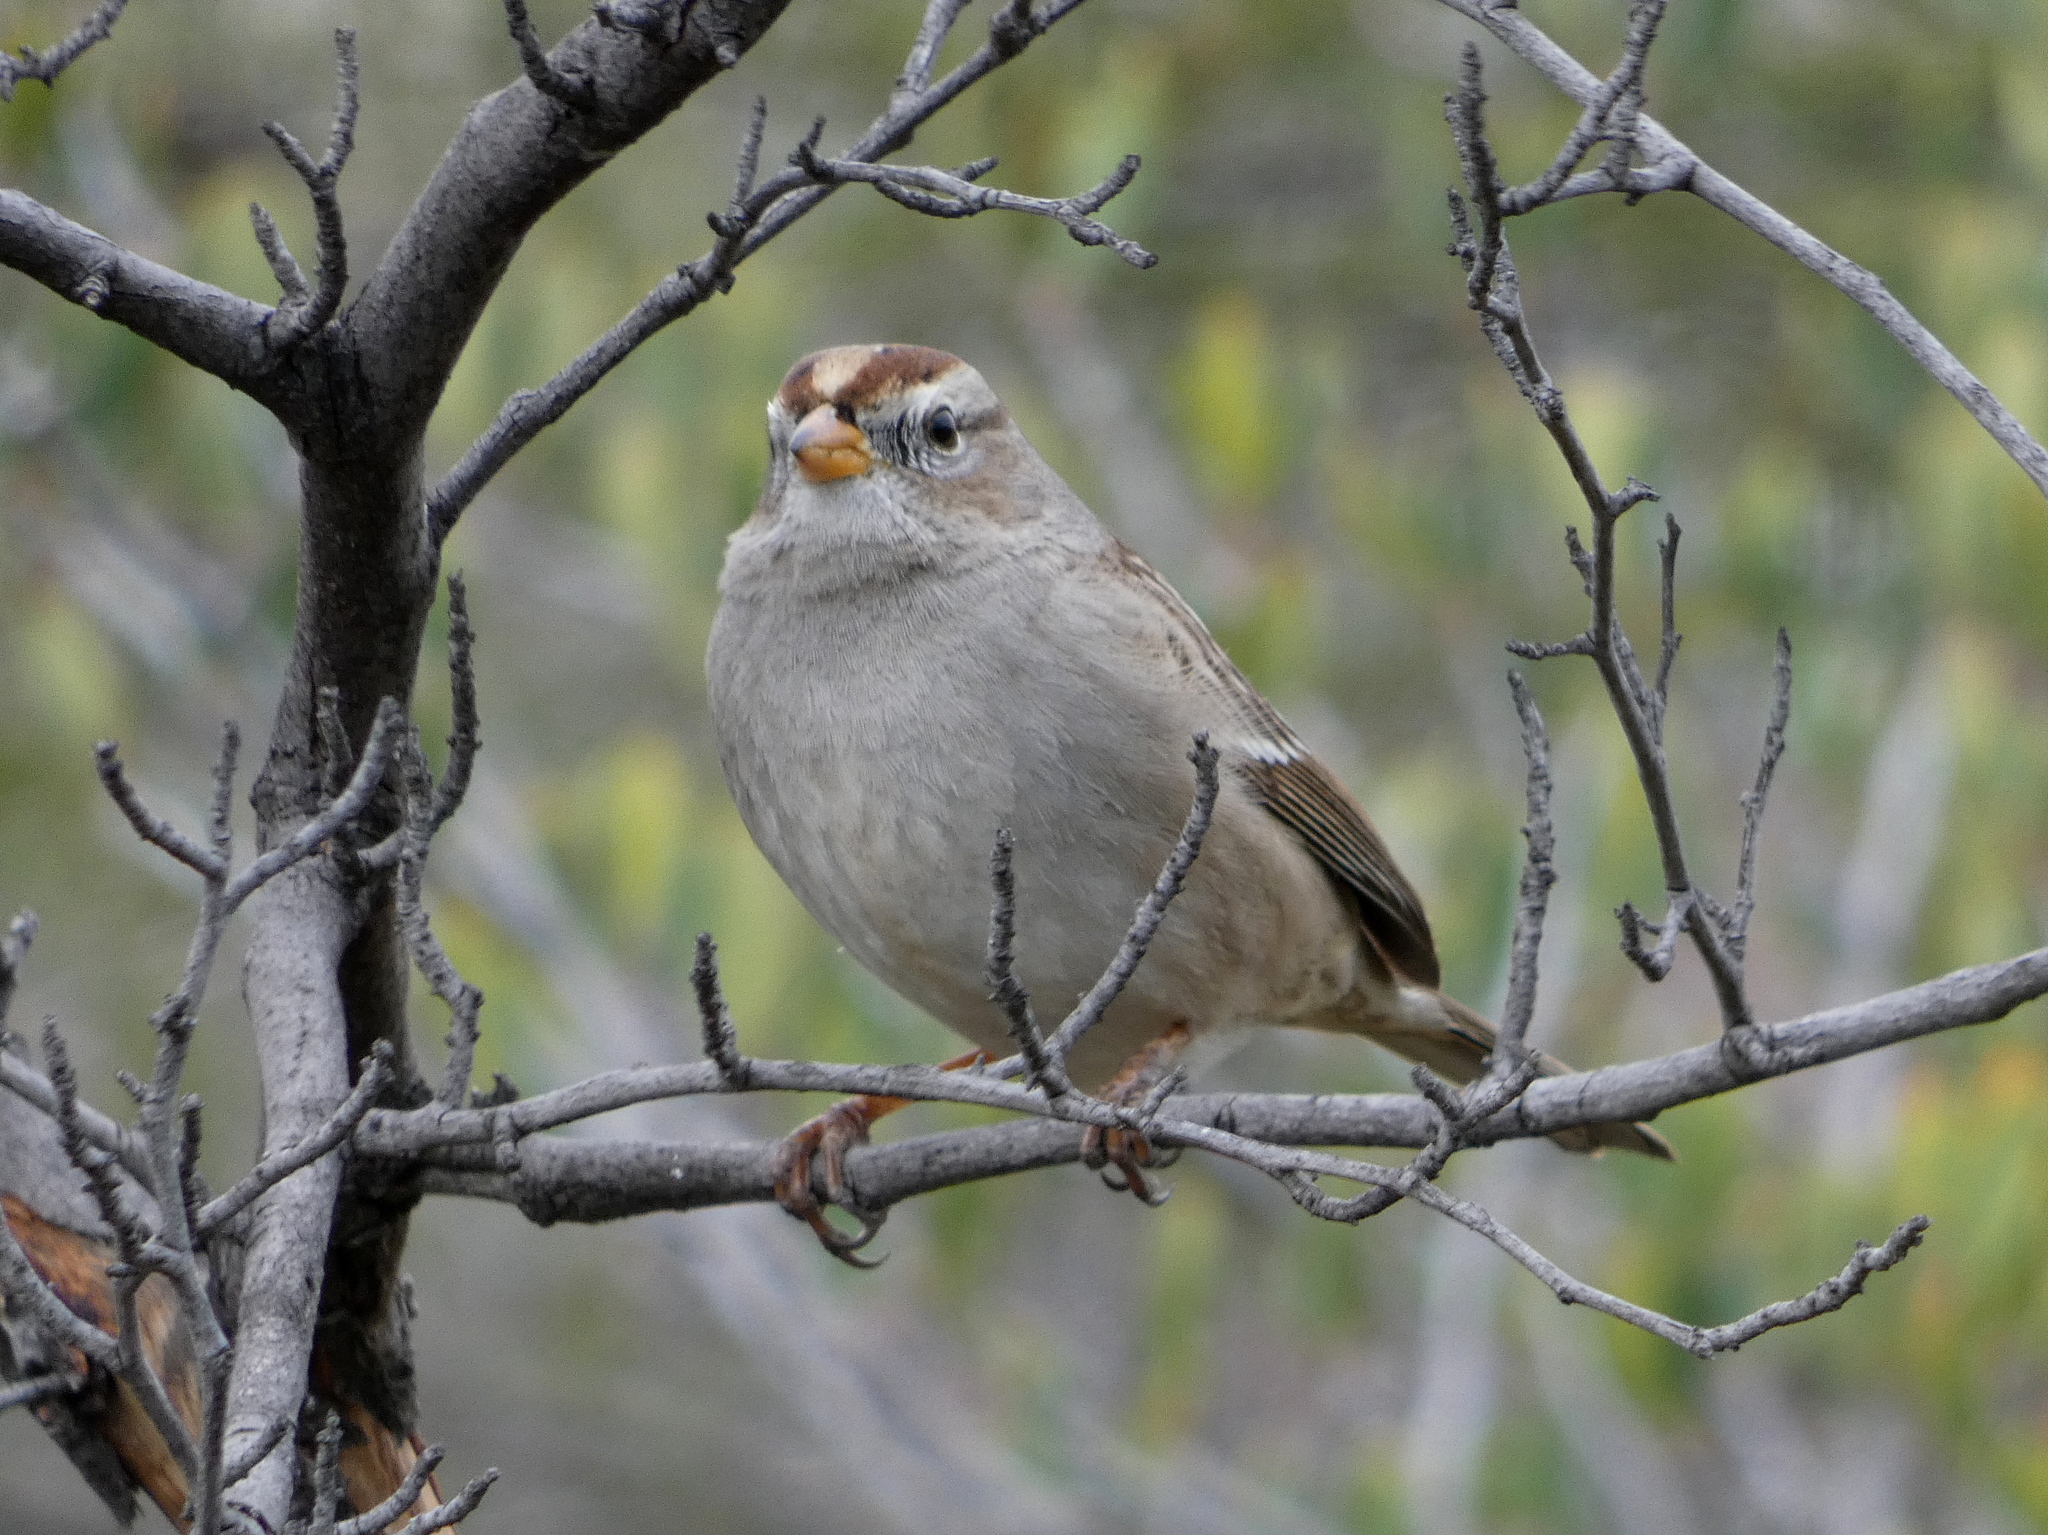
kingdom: Animalia
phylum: Chordata
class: Aves
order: Passeriformes
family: Passerellidae
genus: Zonotrichia
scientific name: Zonotrichia leucophrys
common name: White-crowned sparrow
